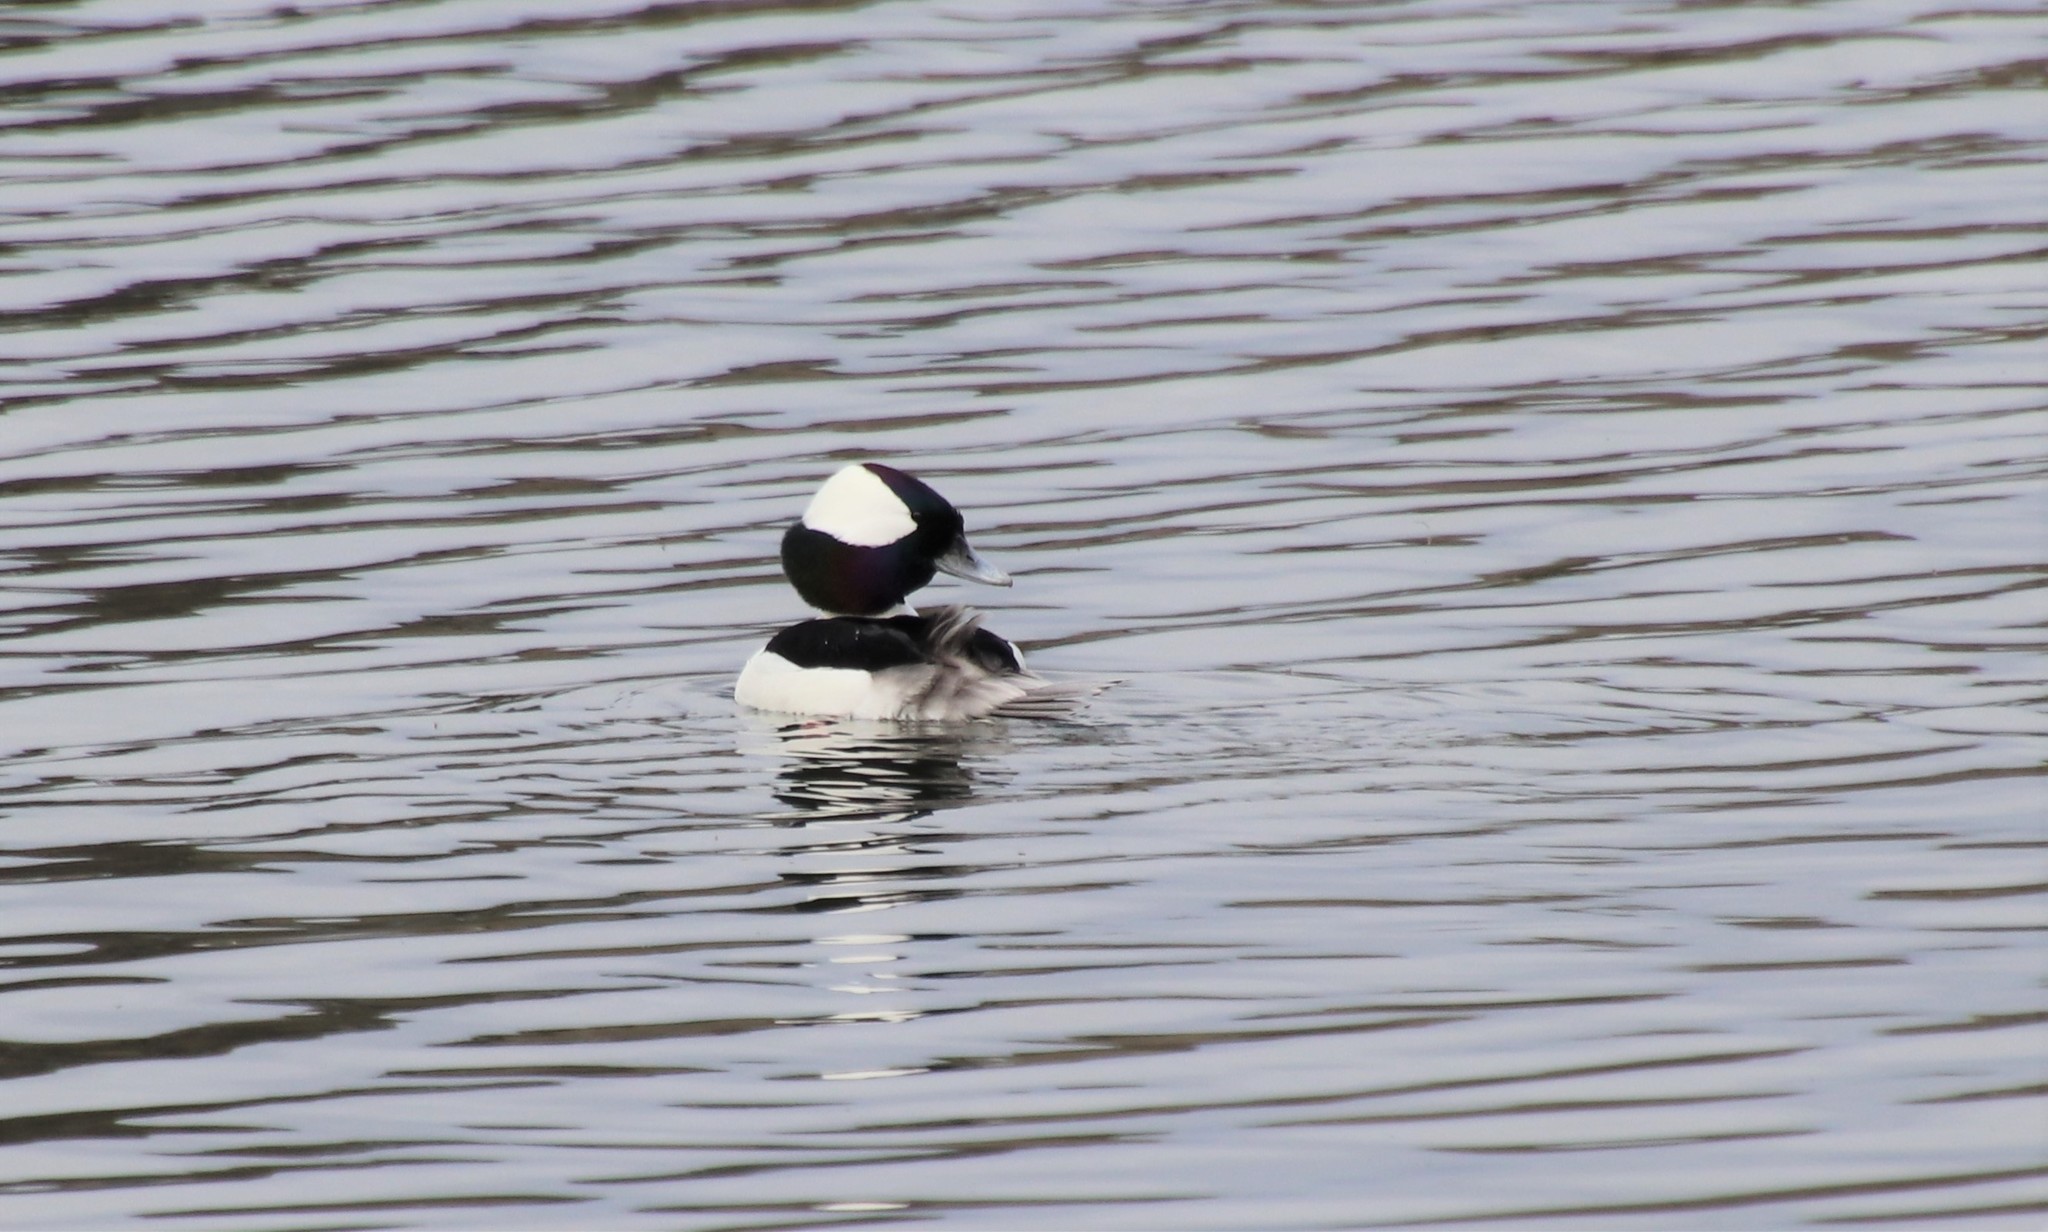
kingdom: Animalia
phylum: Chordata
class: Aves
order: Anseriformes
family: Anatidae
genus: Bucephala
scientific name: Bucephala albeola
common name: Bufflehead
